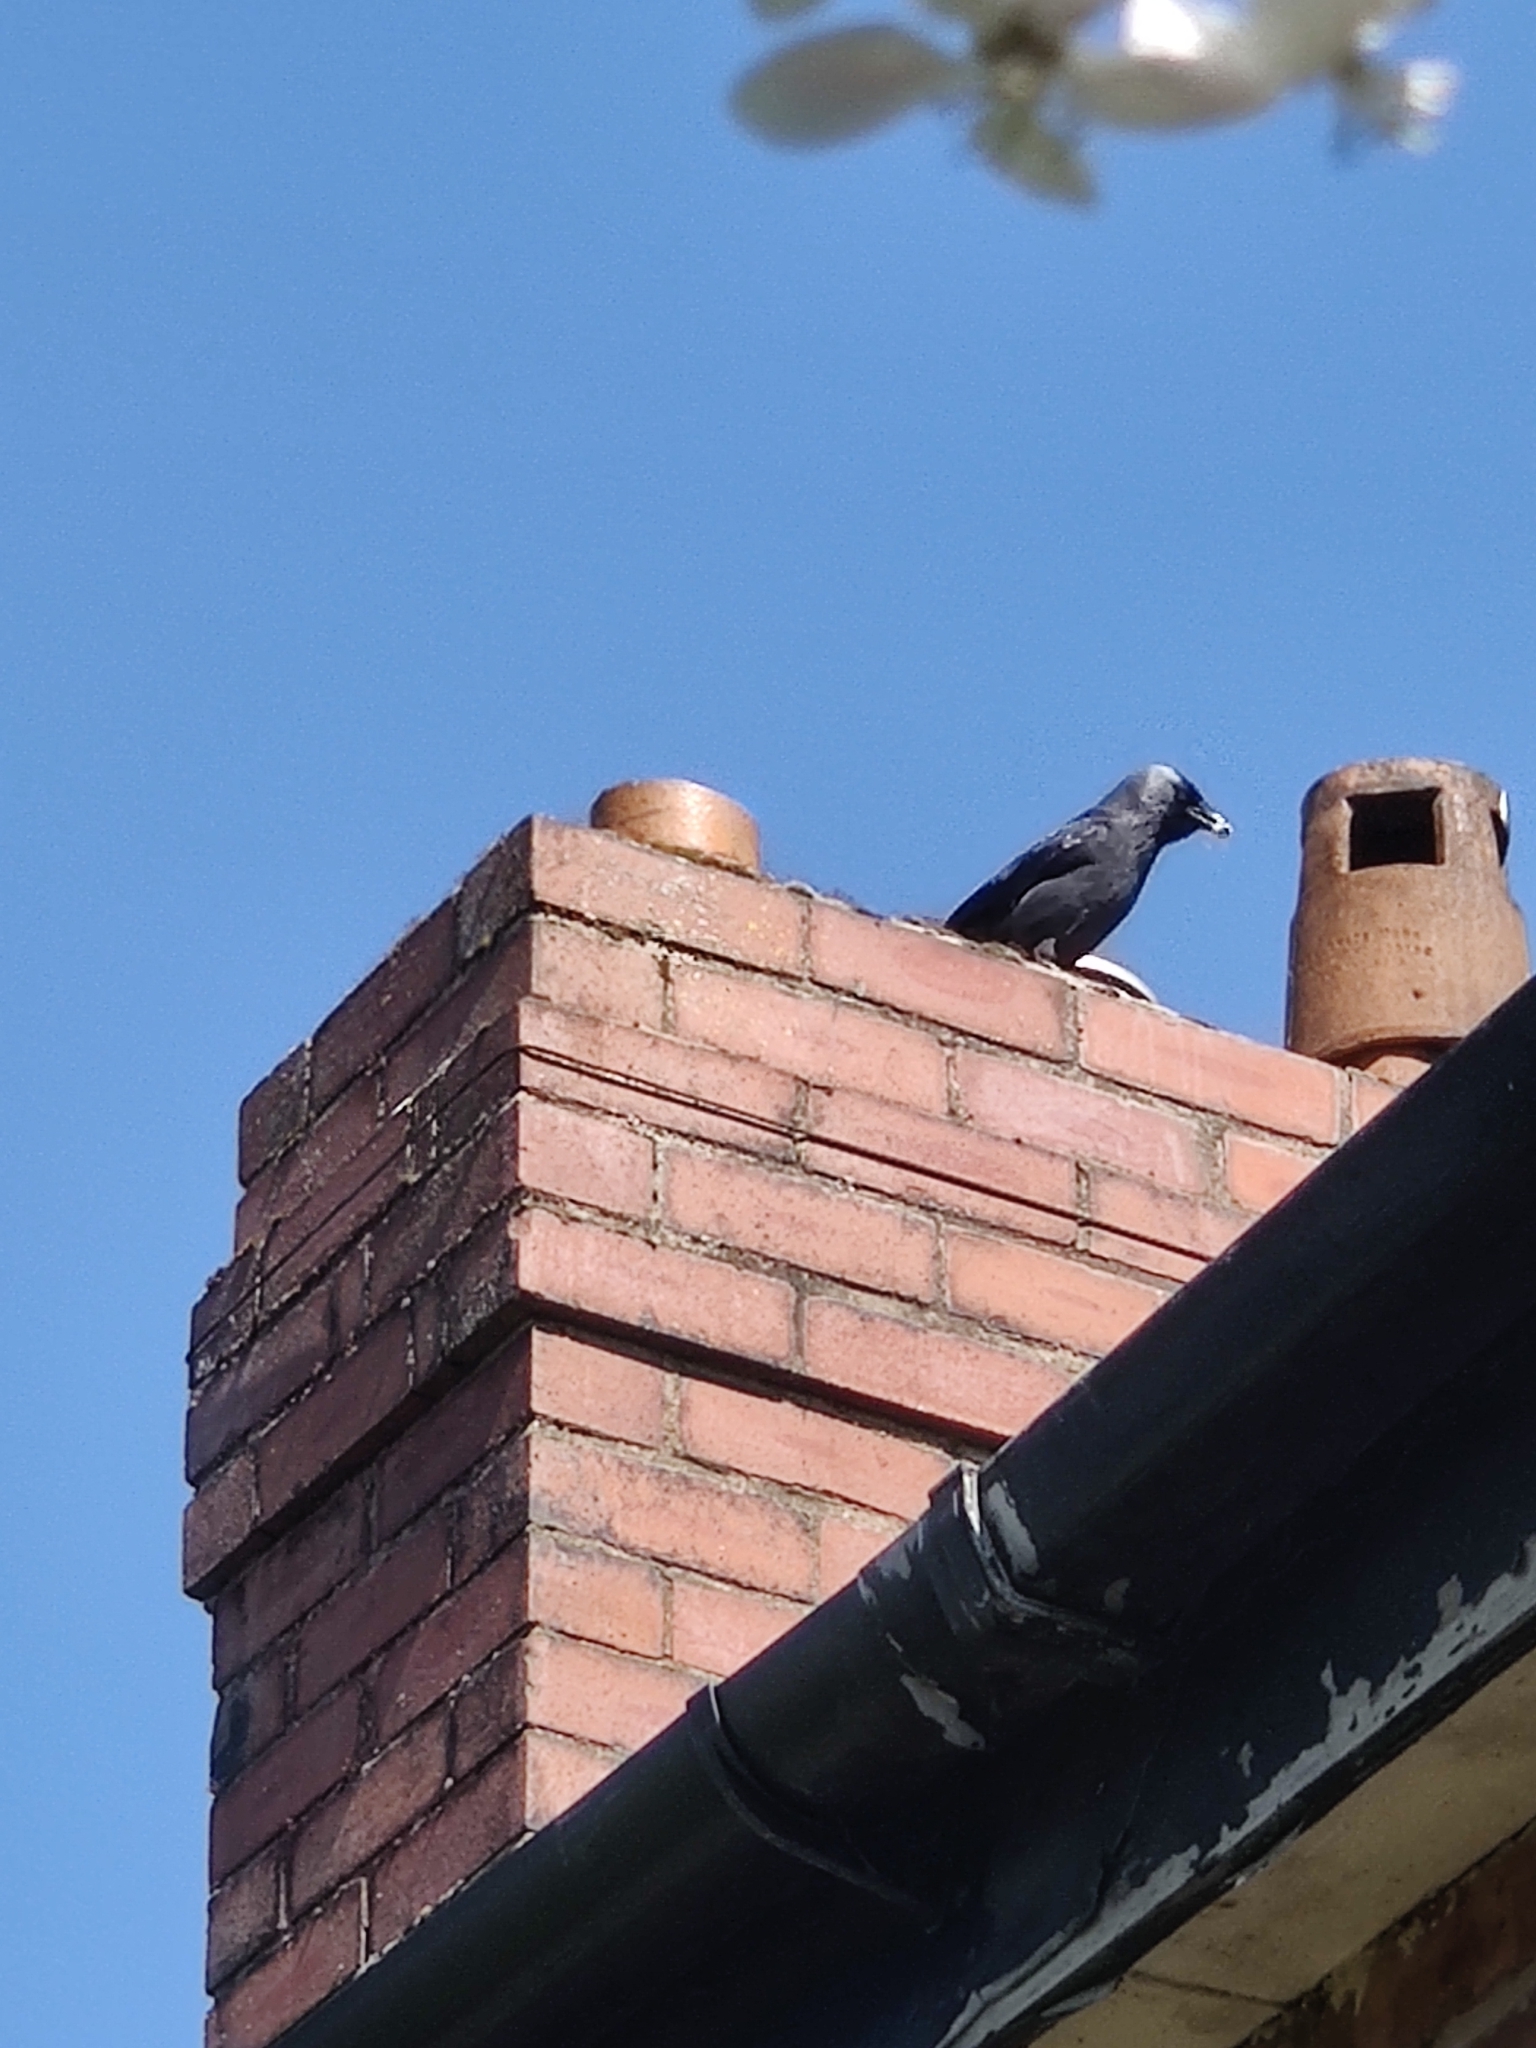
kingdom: Animalia
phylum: Chordata
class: Aves
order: Passeriformes
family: Corvidae
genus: Coloeus
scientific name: Coloeus monedula
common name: Western jackdaw
